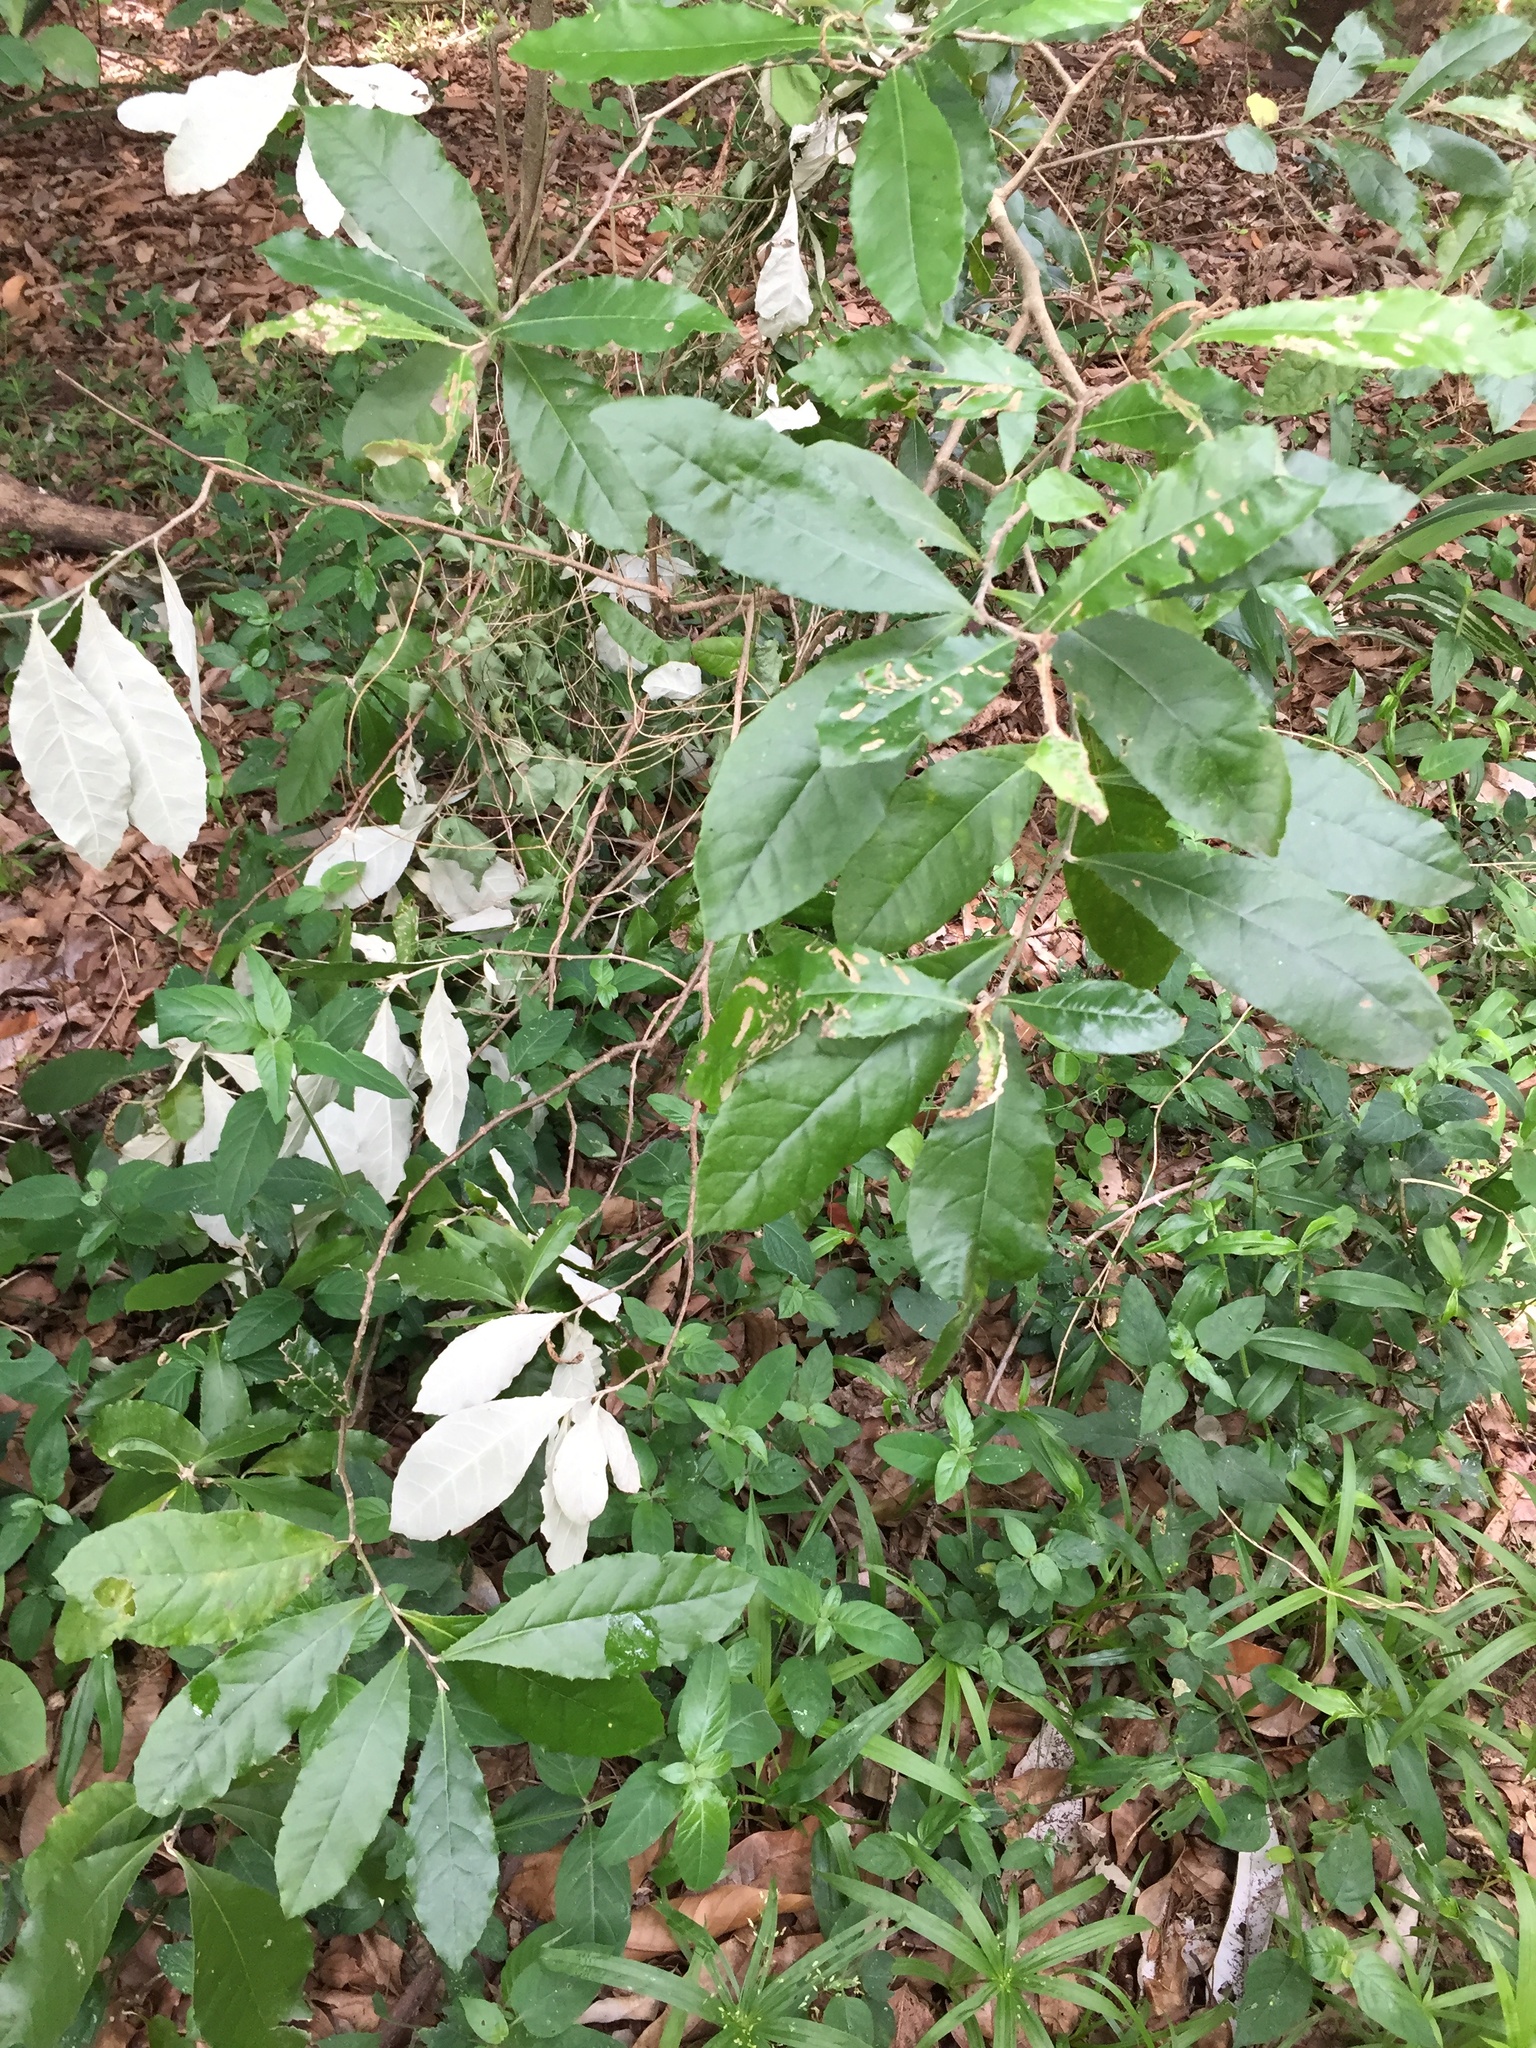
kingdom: Plantae
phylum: Tracheophyta
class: Magnoliopsida
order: Asterales
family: Asteraceae
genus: Brachylaena
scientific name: Brachylaena discolor
